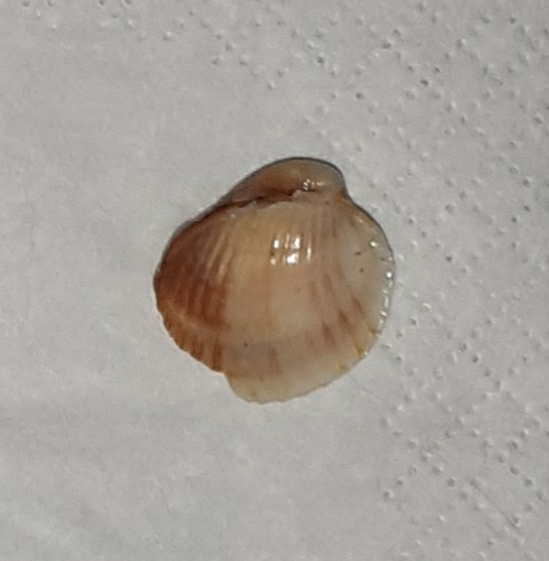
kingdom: Animalia
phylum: Mollusca
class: Bivalvia
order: Cardiida
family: Cardiidae
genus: Cerastoderma
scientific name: Cerastoderma glaucum
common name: Lagoon cockle
